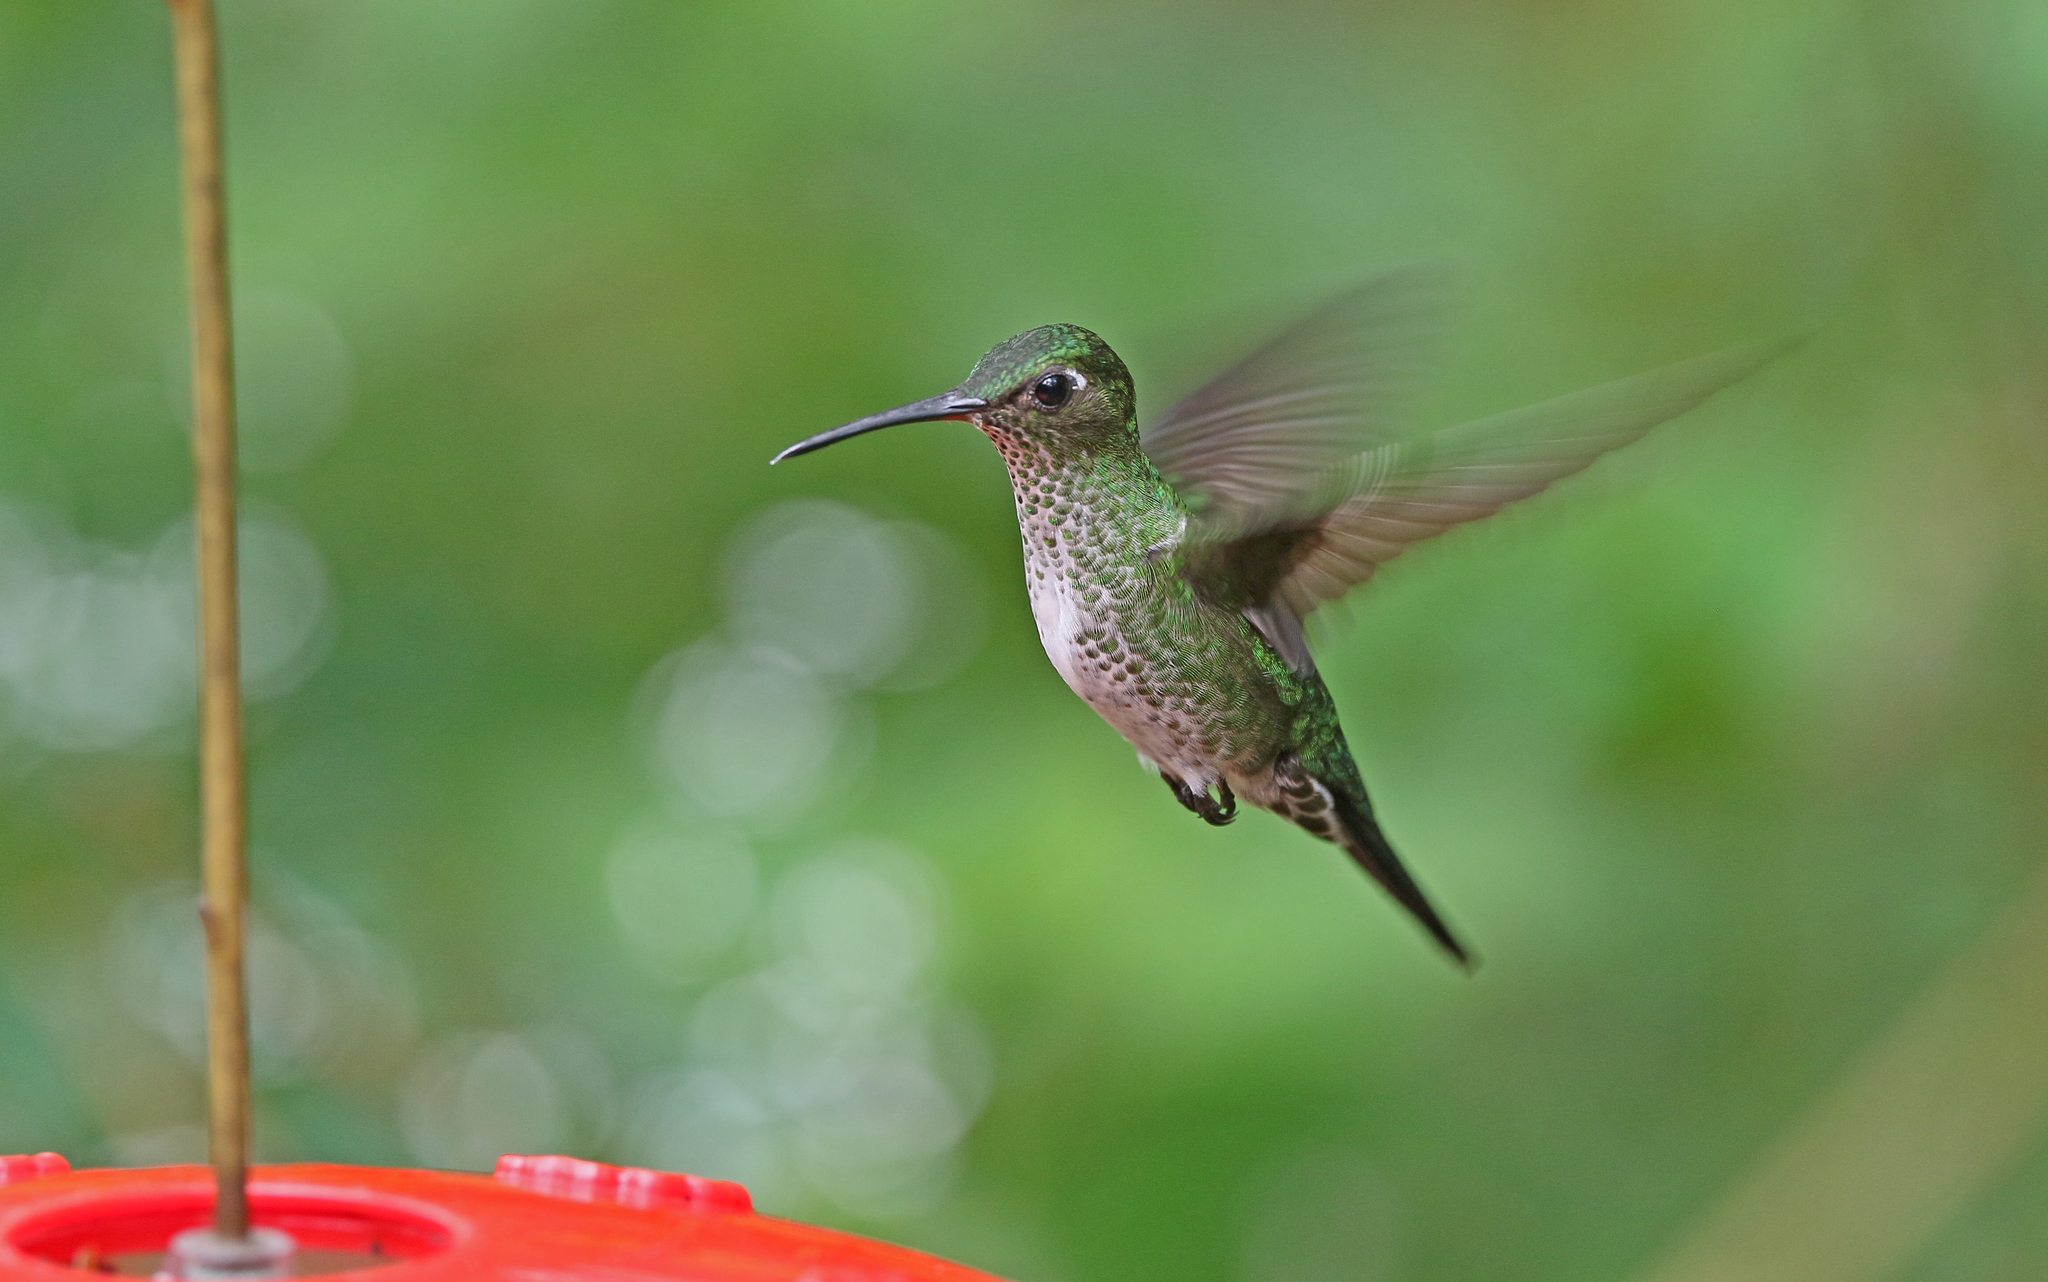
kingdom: Animalia
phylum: Chordata
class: Aves
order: Apodiformes
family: Trochilidae
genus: Taphrospilus
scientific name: Taphrospilus hypostictus
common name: Many-spotted hummingbird
